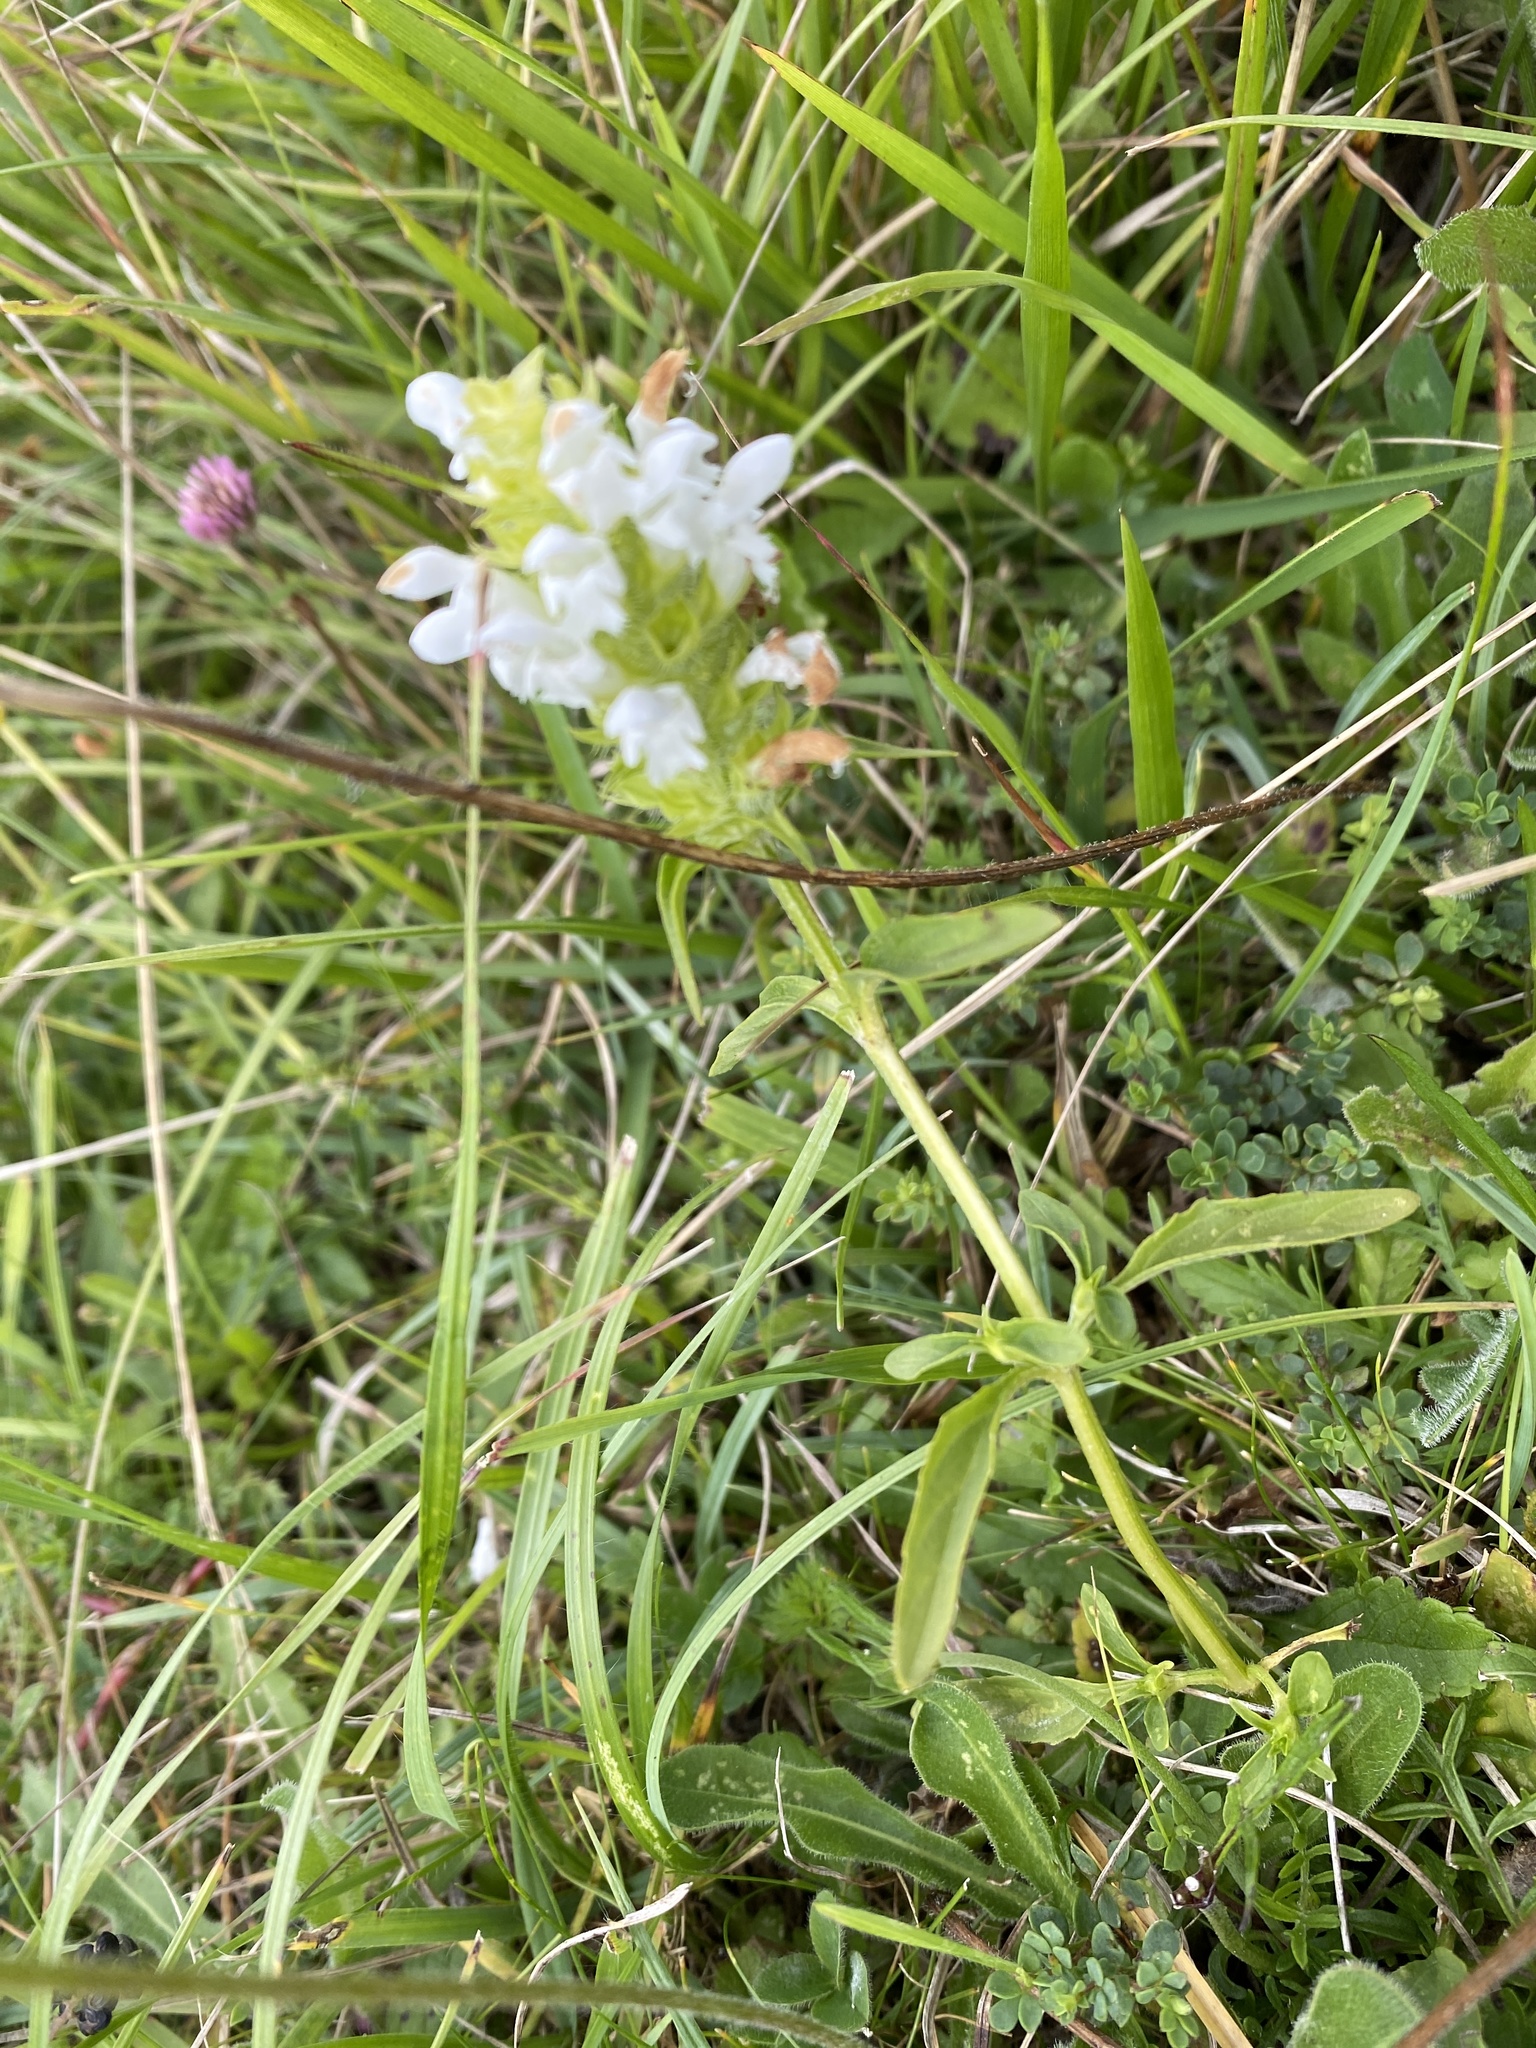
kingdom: Plantae
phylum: Tracheophyta
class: Magnoliopsida
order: Lamiales
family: Lamiaceae
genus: Prunella
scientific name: Prunella vulgaris
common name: Heal-all
